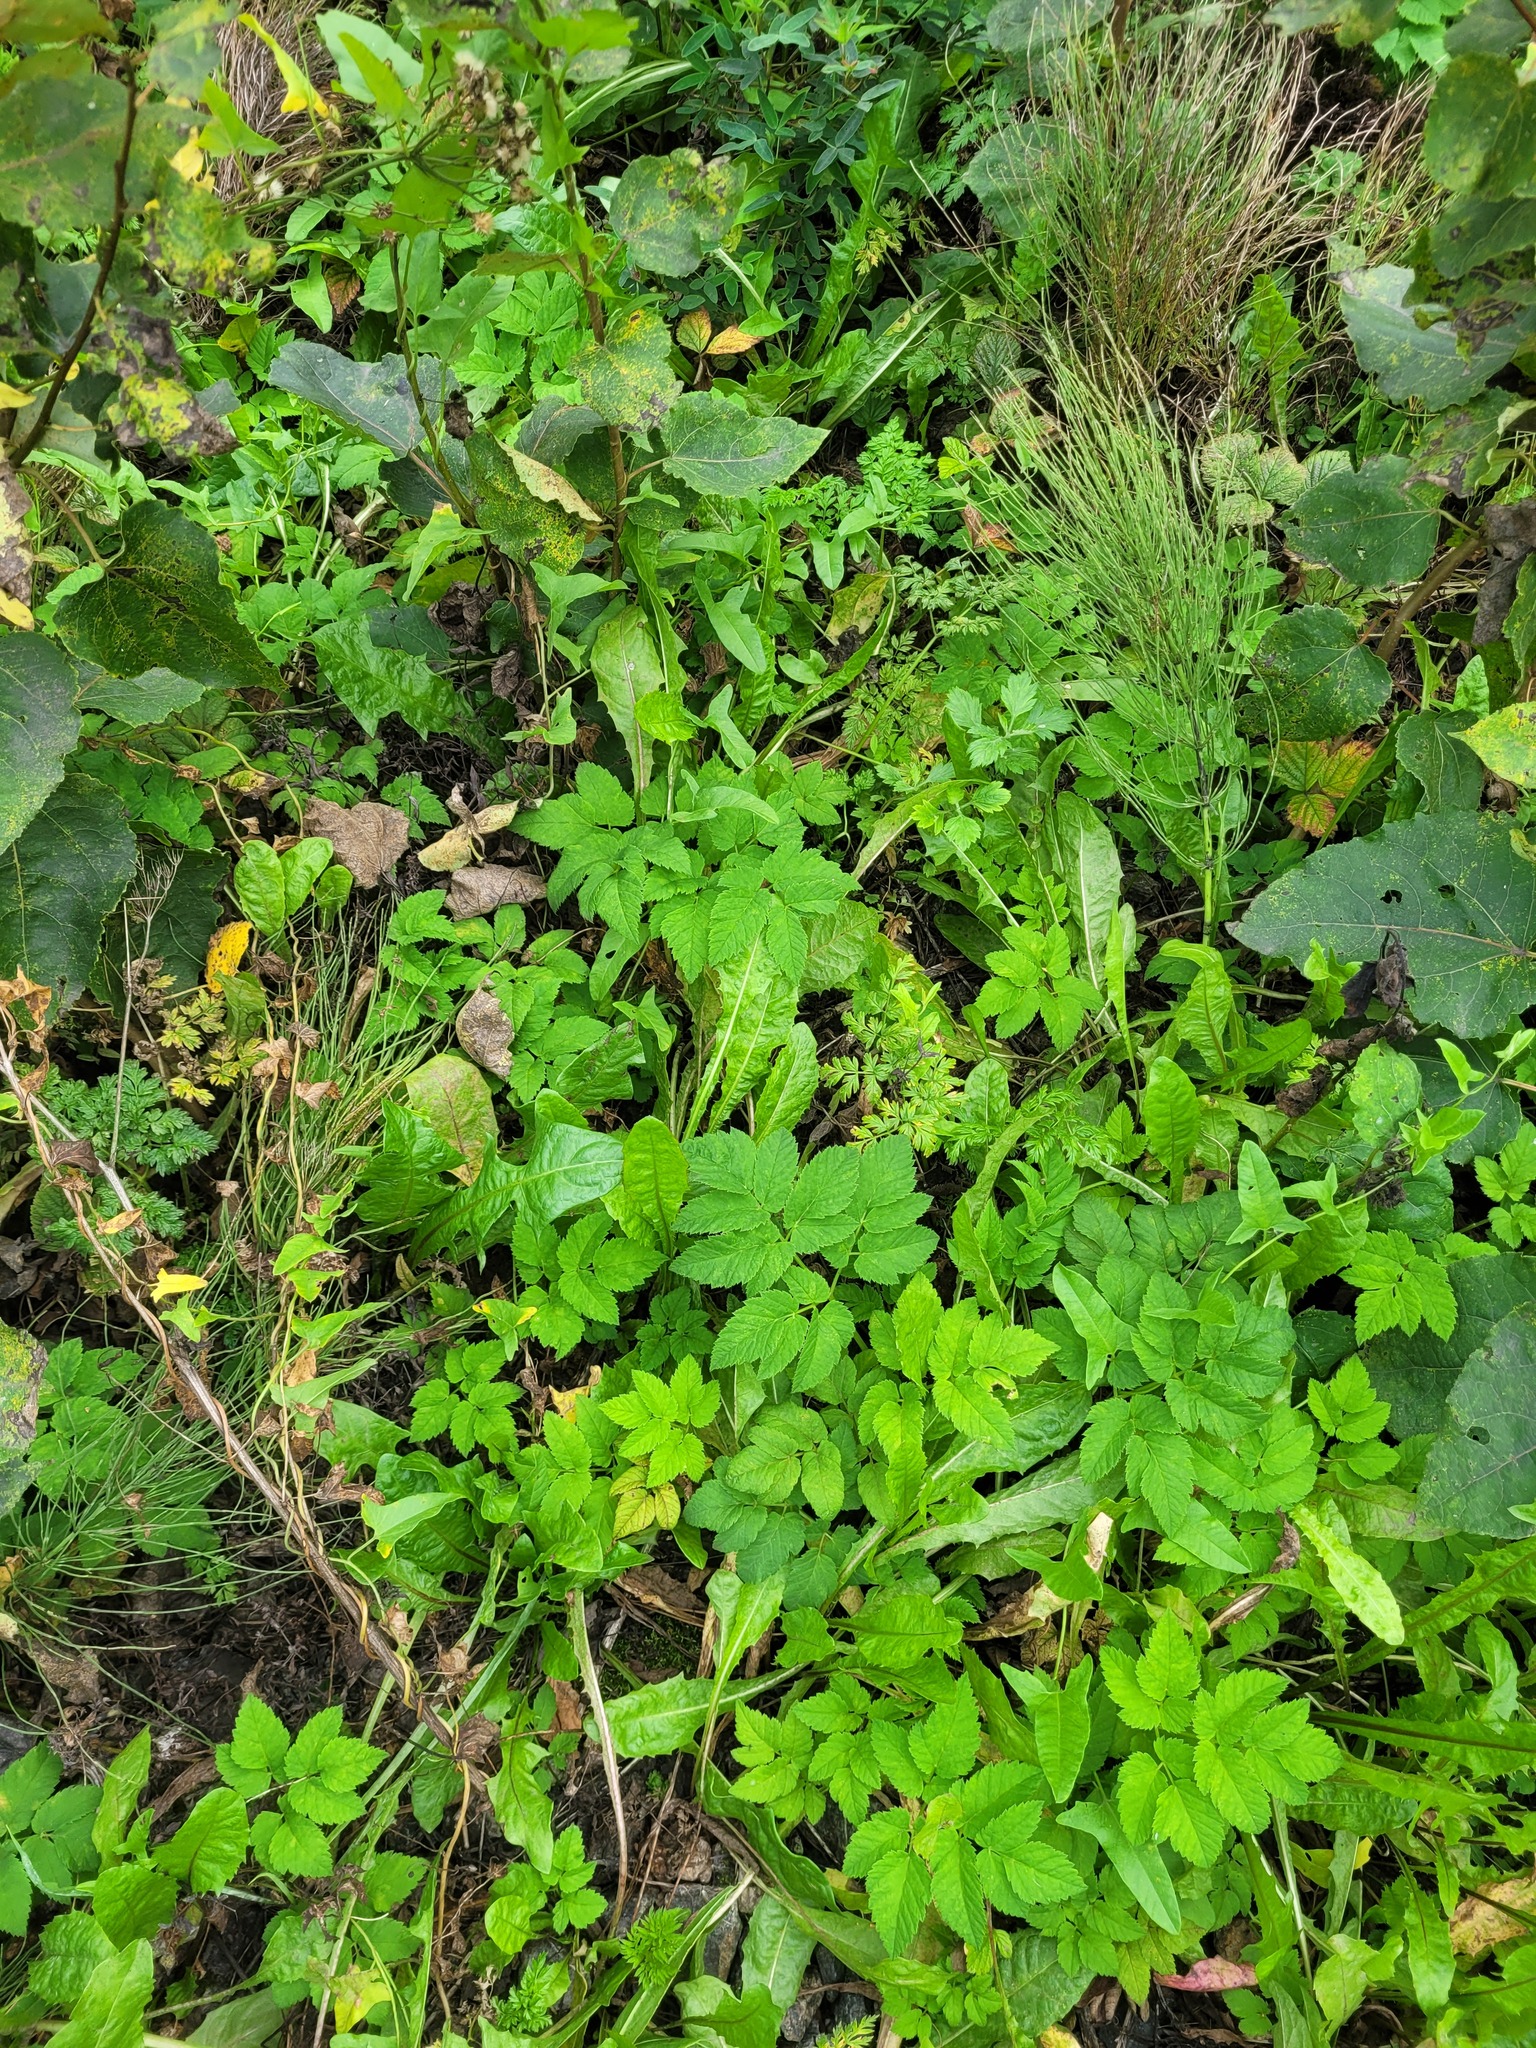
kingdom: Plantae
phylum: Tracheophyta
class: Magnoliopsida
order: Apiales
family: Apiaceae
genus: Aegopodium
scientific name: Aegopodium podagraria
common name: Ground-elder
